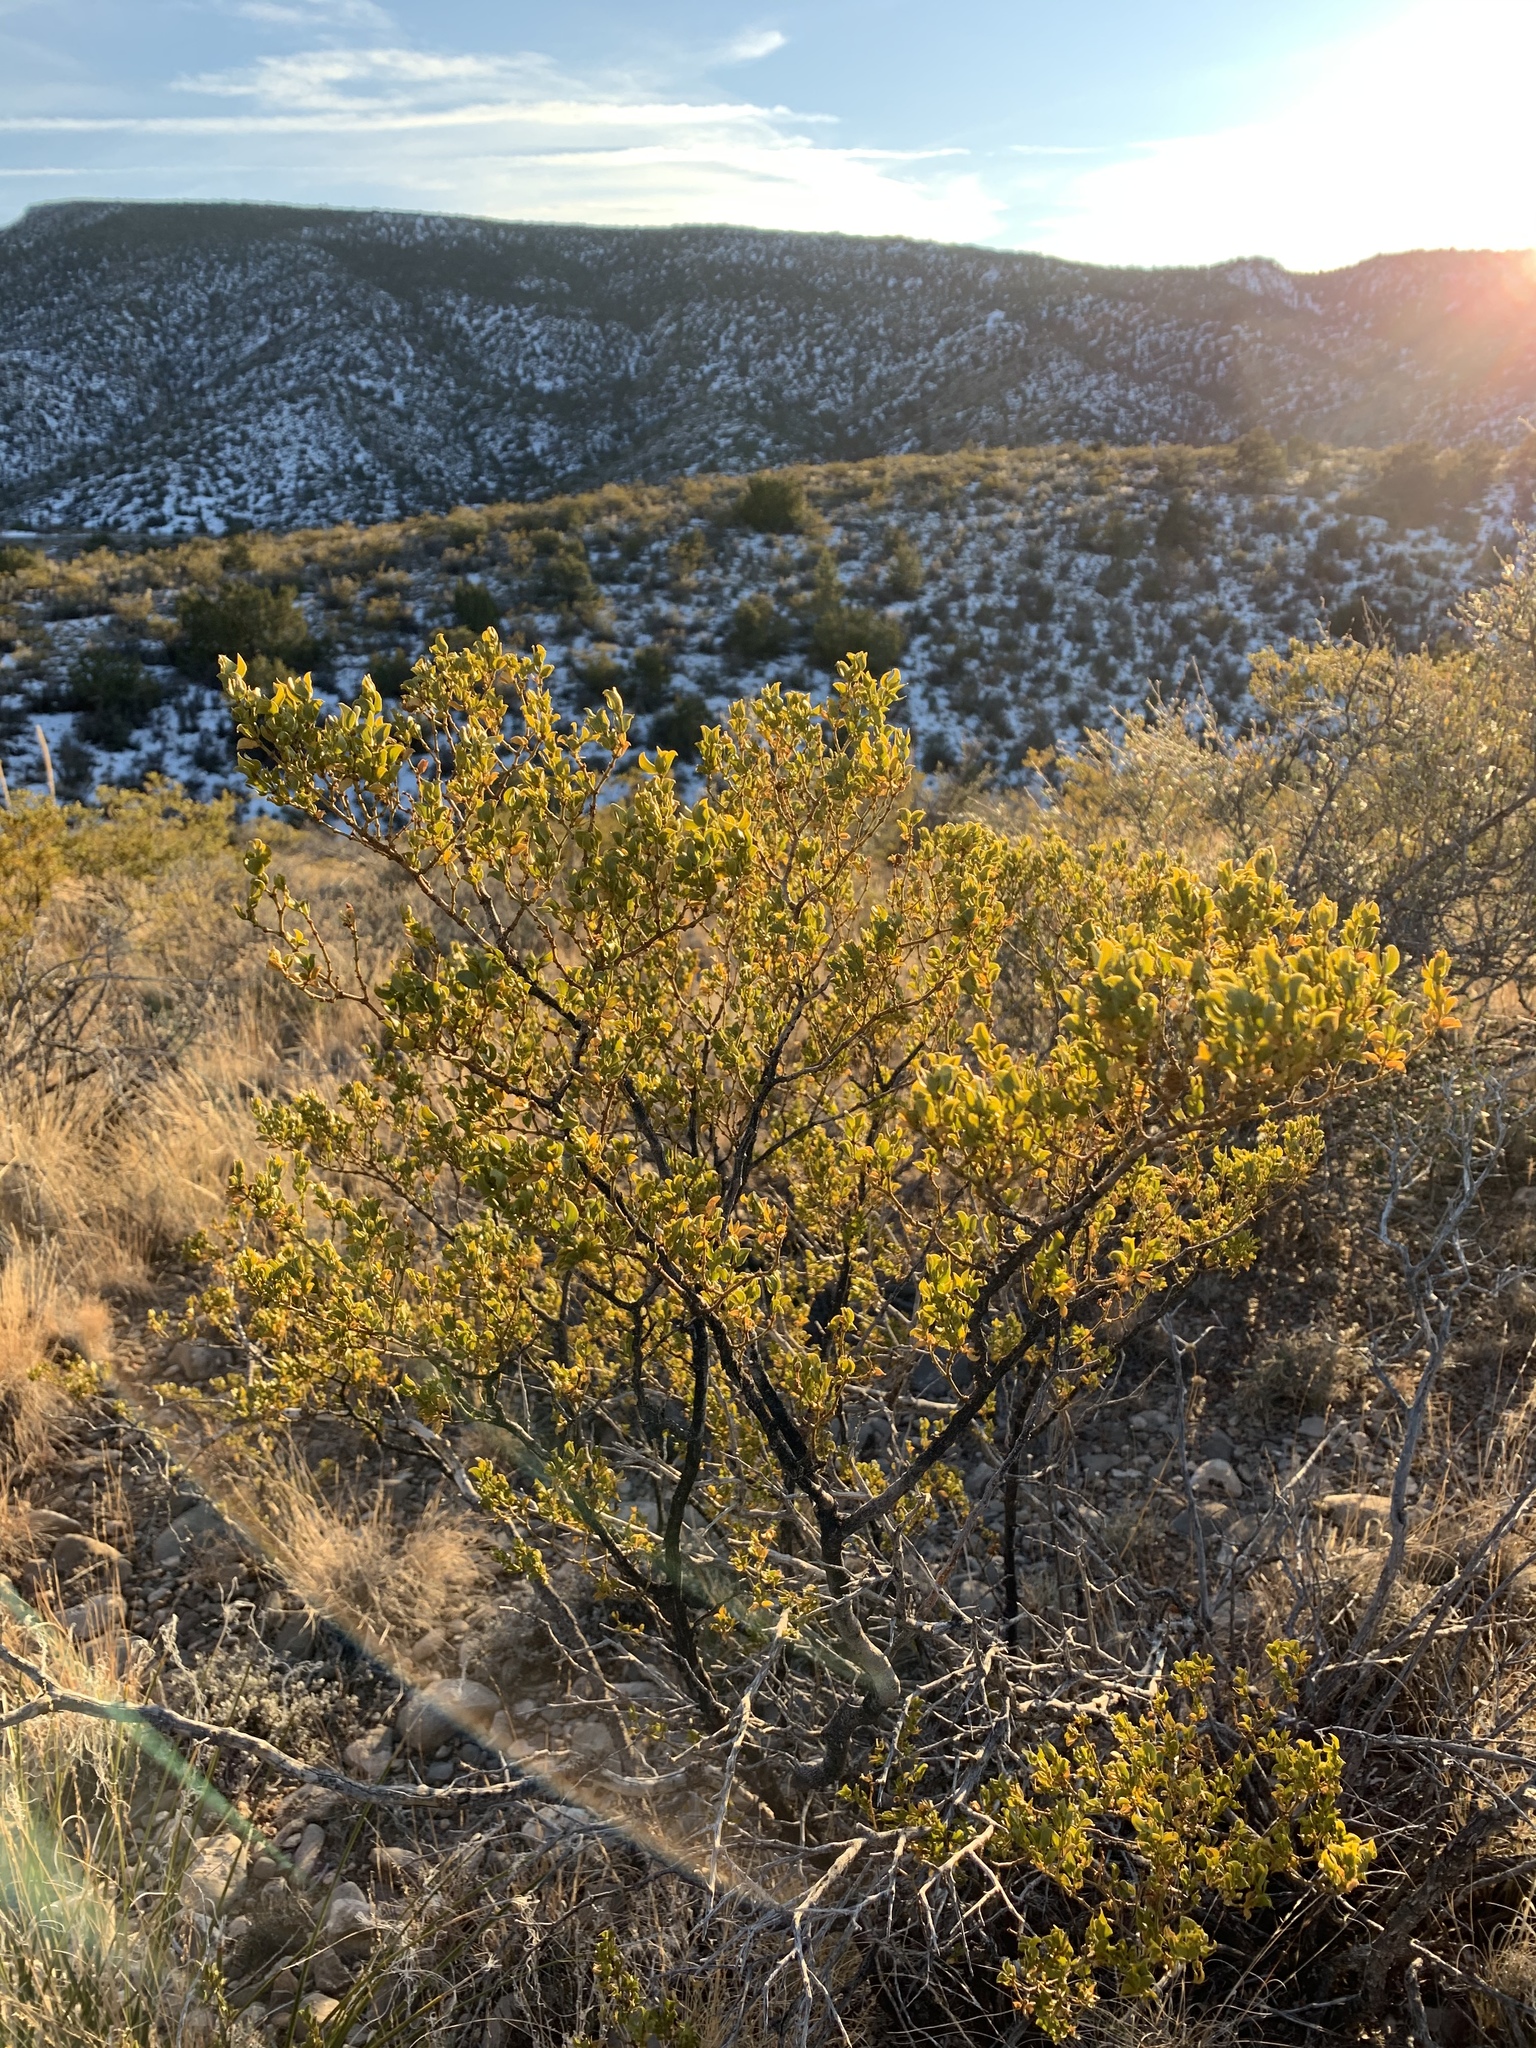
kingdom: Plantae
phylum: Tracheophyta
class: Magnoliopsida
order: Zygophyllales
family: Zygophyllaceae
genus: Larrea
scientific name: Larrea tridentata
